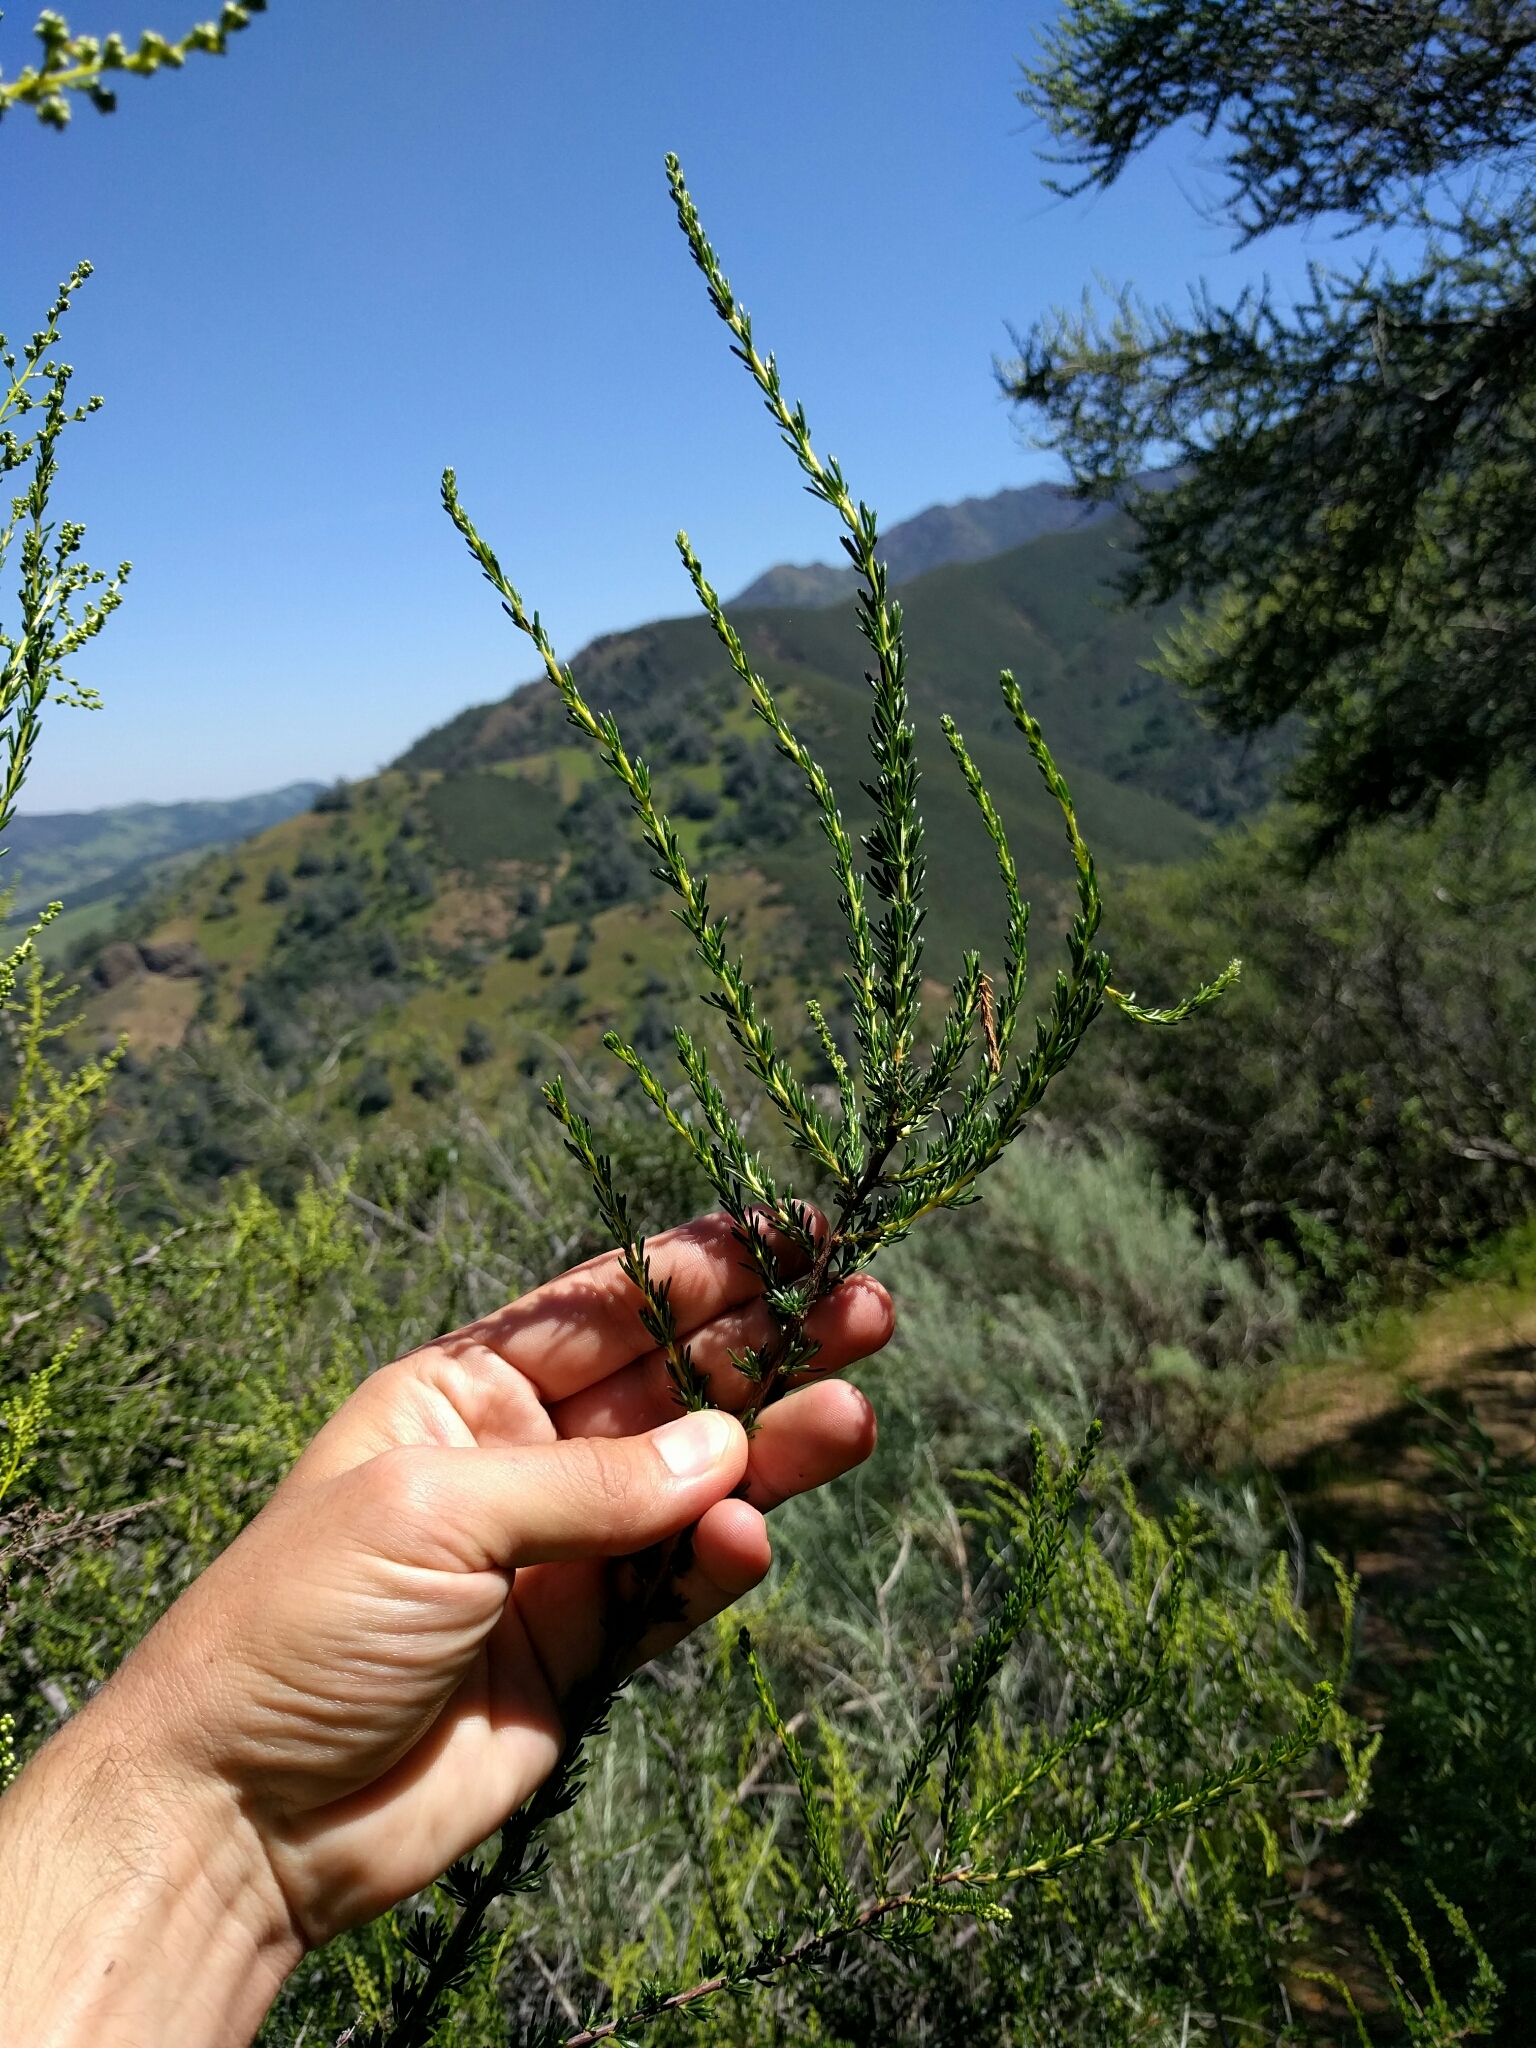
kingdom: Plantae
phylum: Tracheophyta
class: Magnoliopsida
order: Rosales
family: Rosaceae
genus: Adenostoma
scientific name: Adenostoma fasciculatum
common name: Chamise
